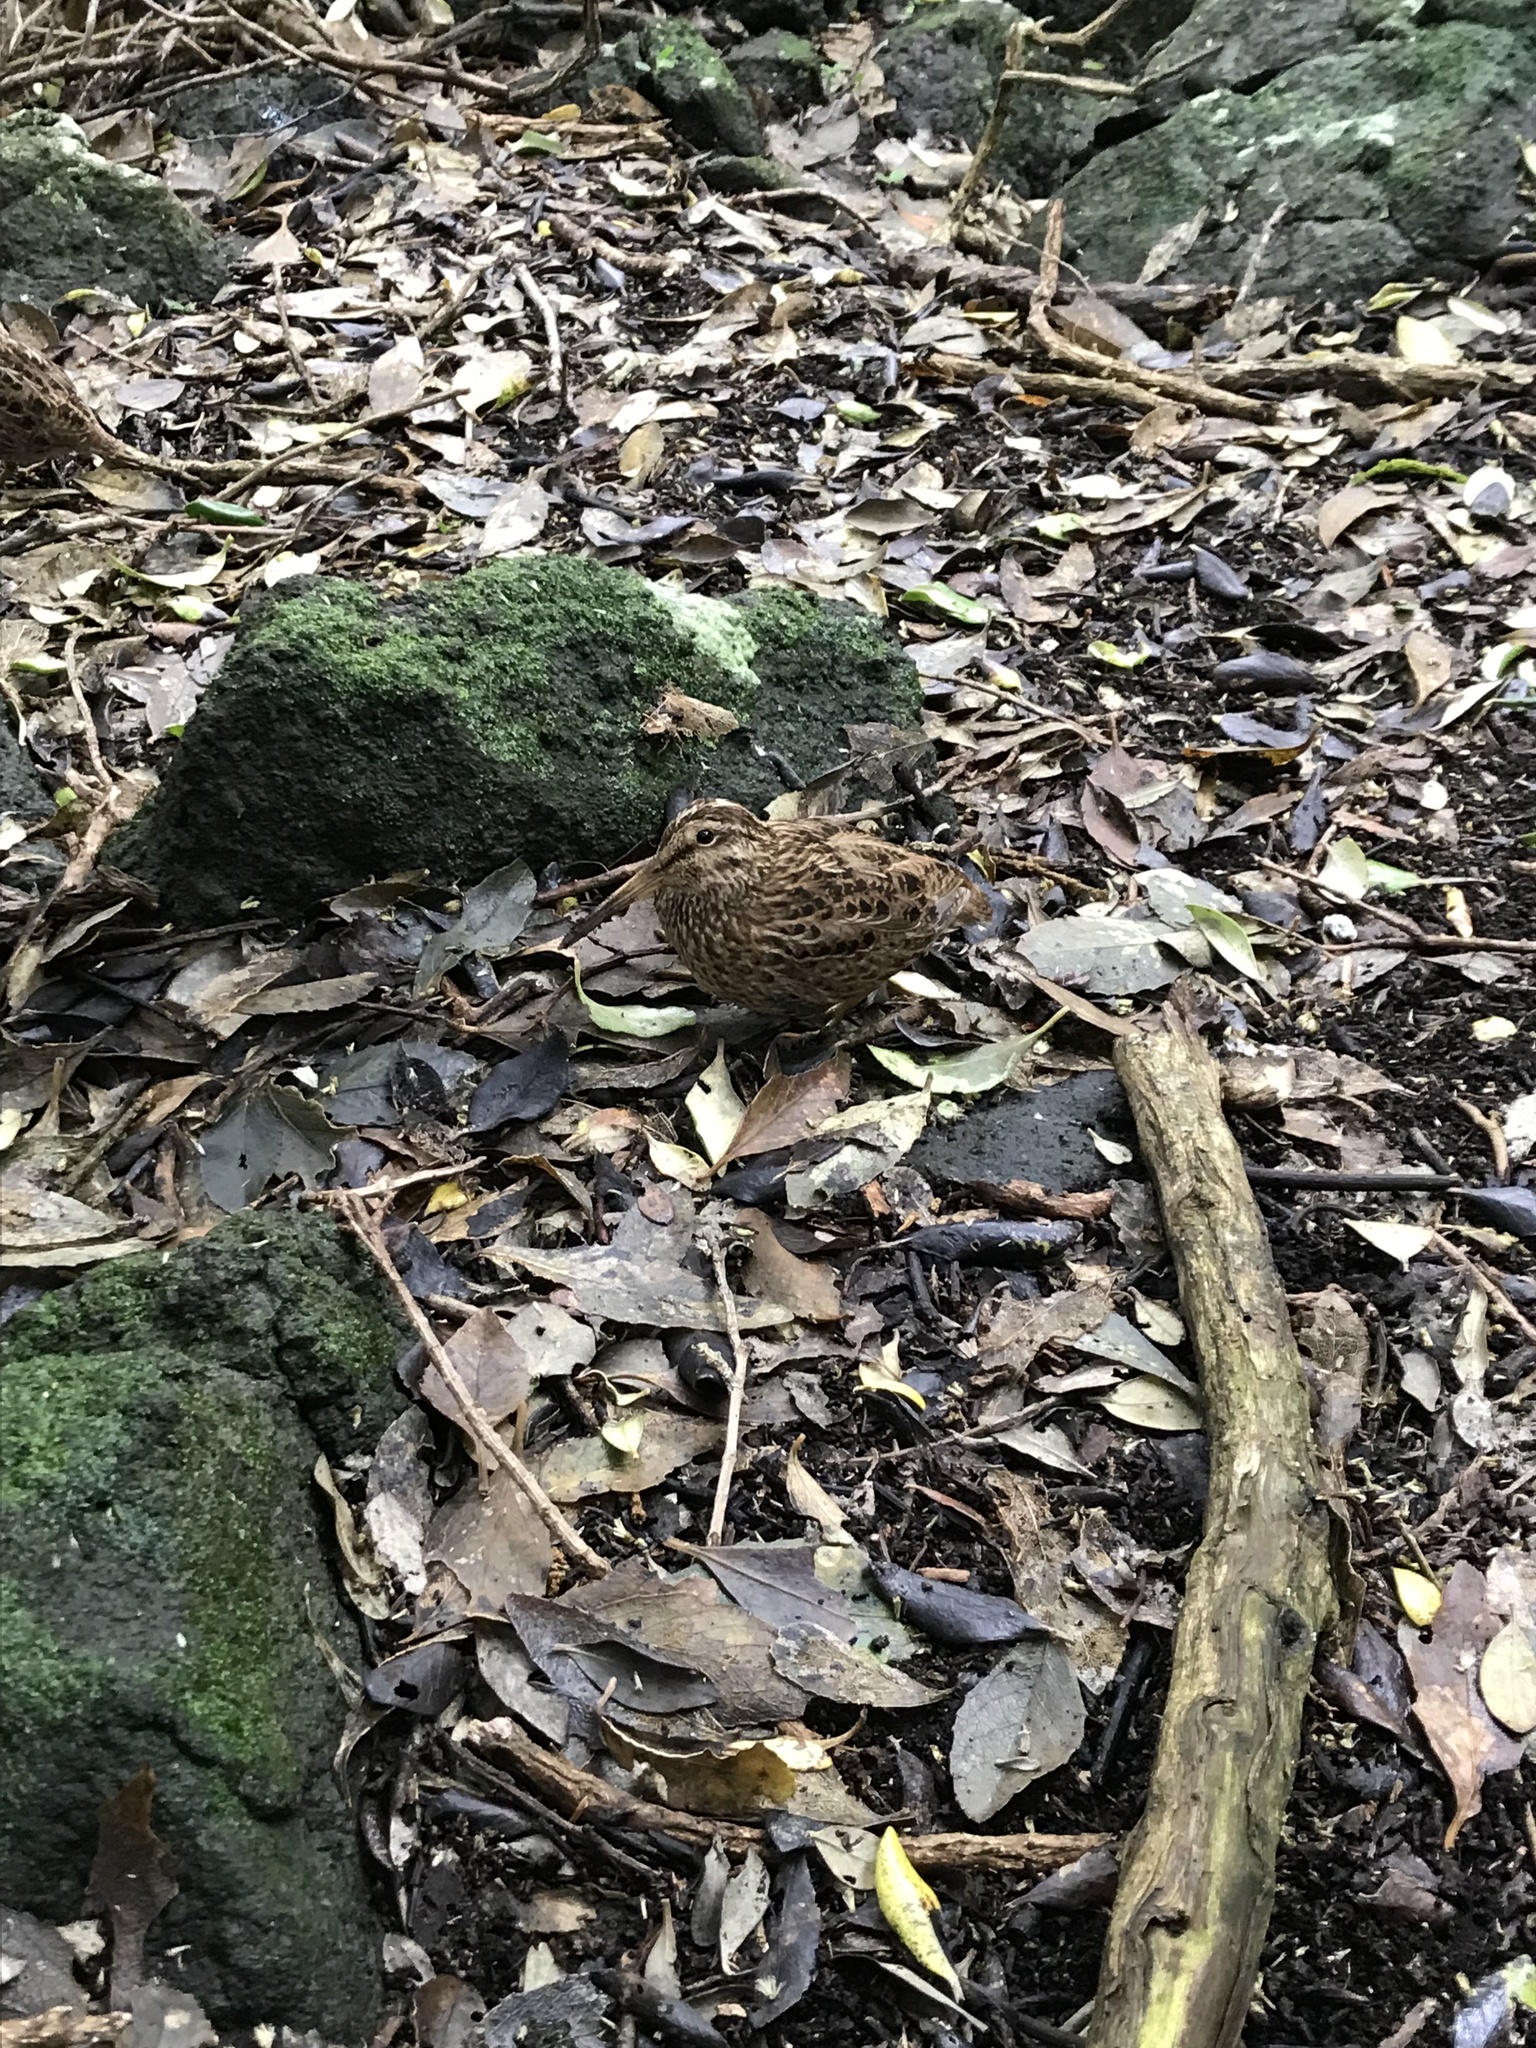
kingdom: Animalia
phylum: Chordata
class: Aves
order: Charadriiformes
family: Scolopacidae
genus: Coenocorypha
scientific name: Coenocorypha pusilla
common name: Chatham snipe
